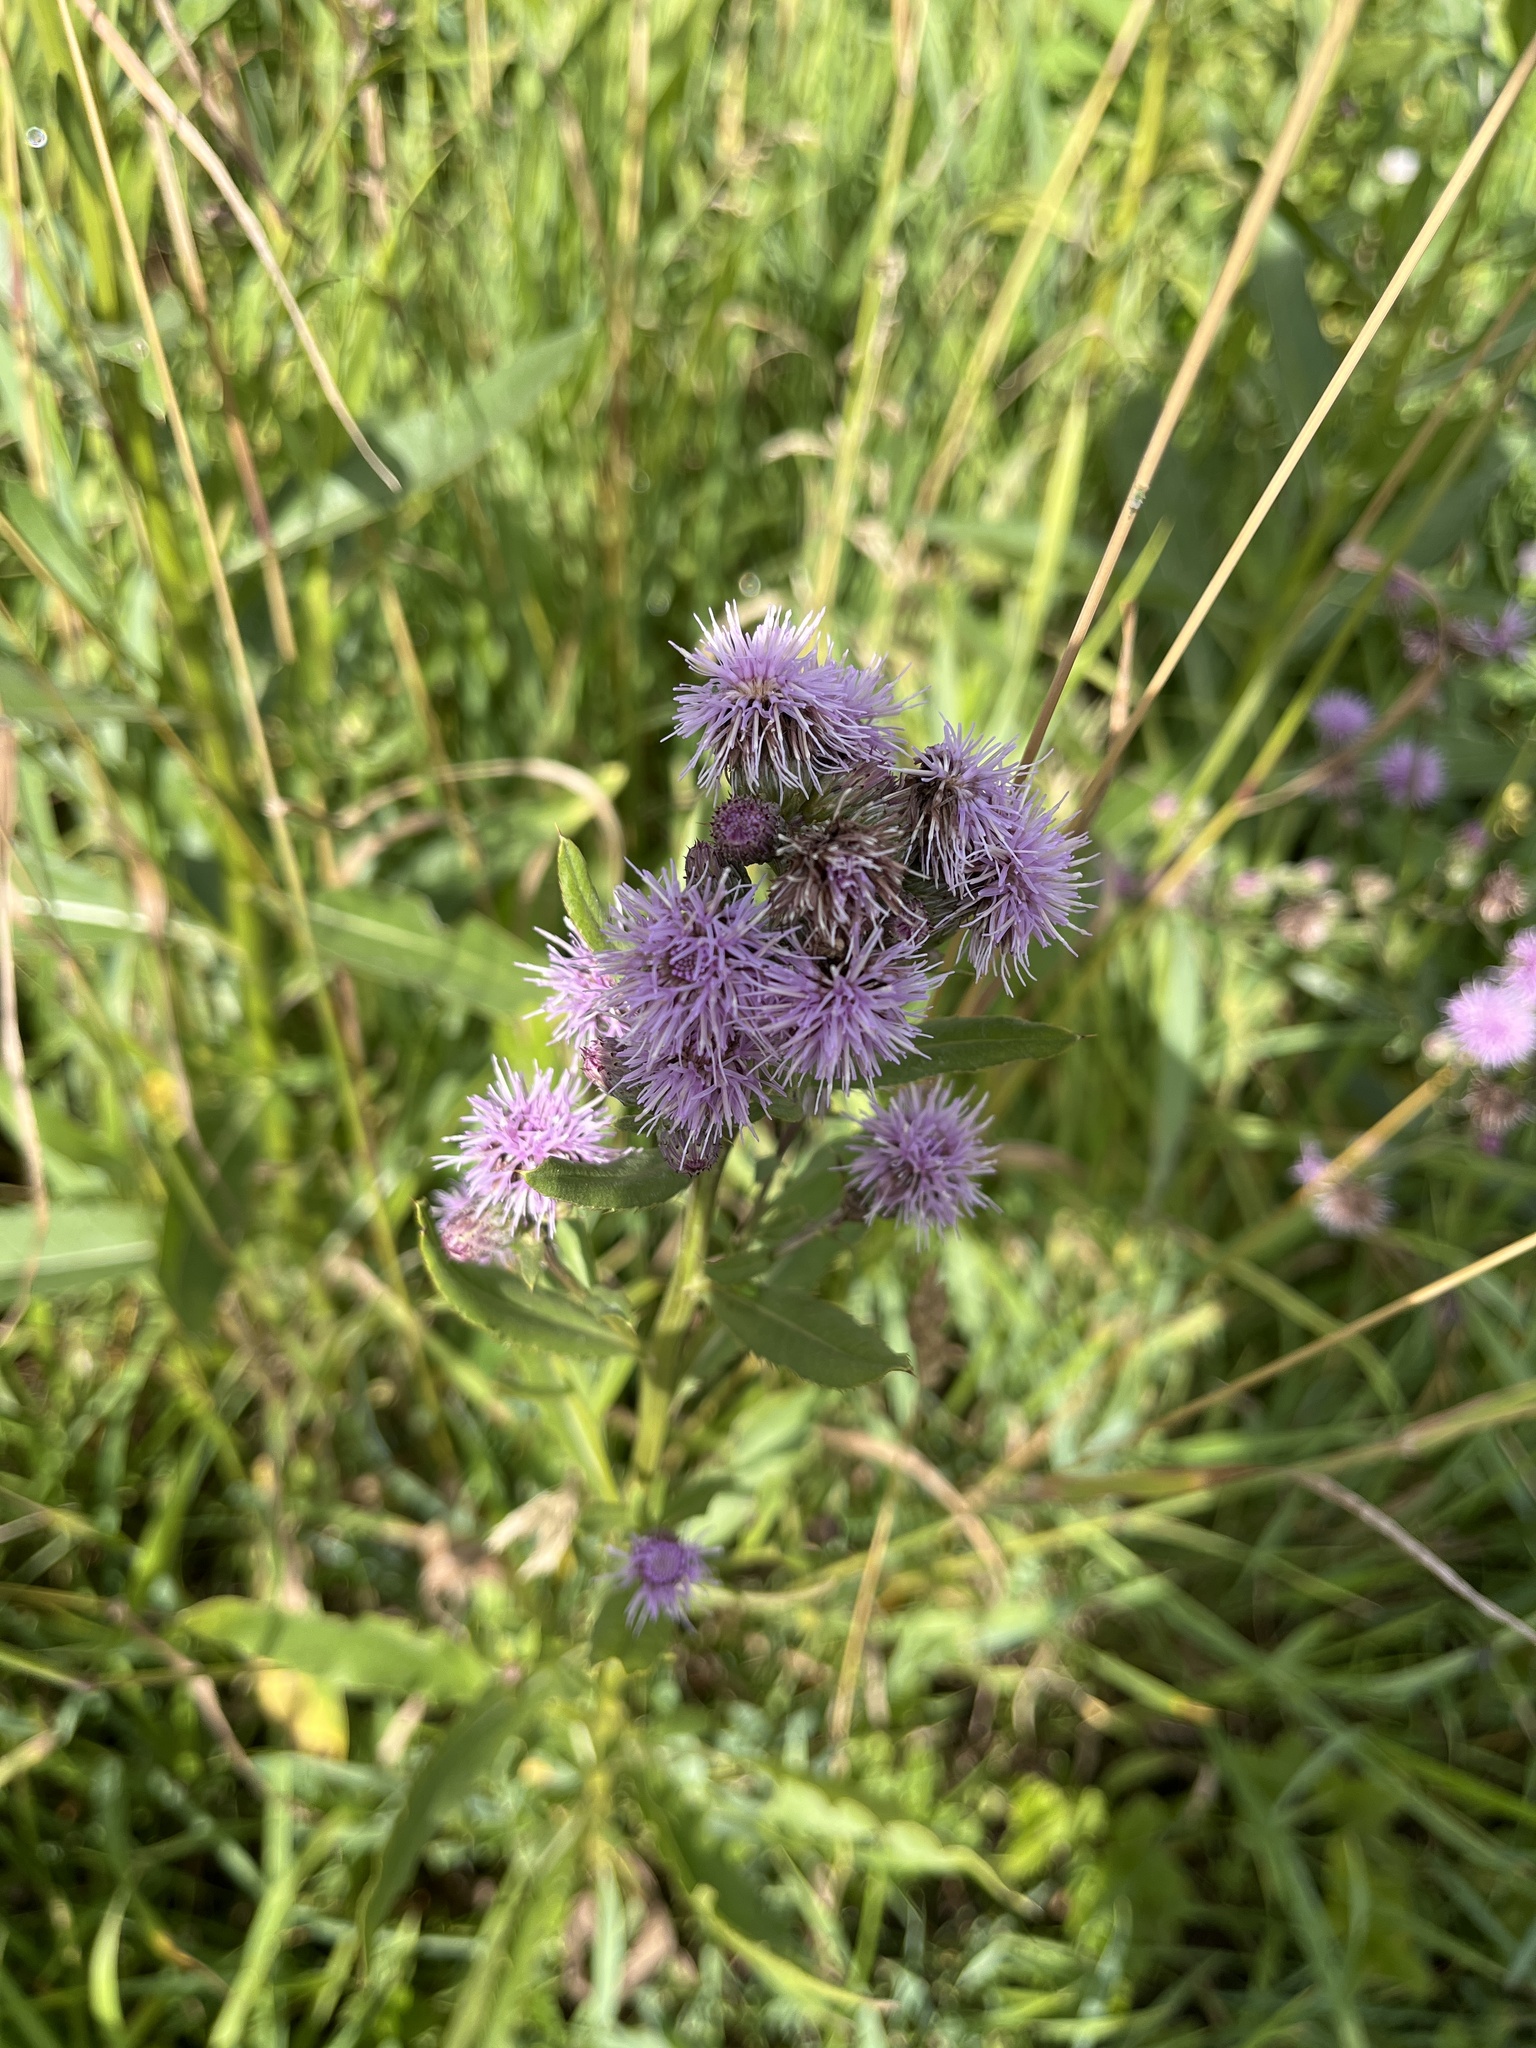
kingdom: Plantae
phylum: Tracheophyta
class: Magnoliopsida
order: Asterales
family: Asteraceae
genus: Cirsium
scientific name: Cirsium arvense
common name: Creeping thistle
